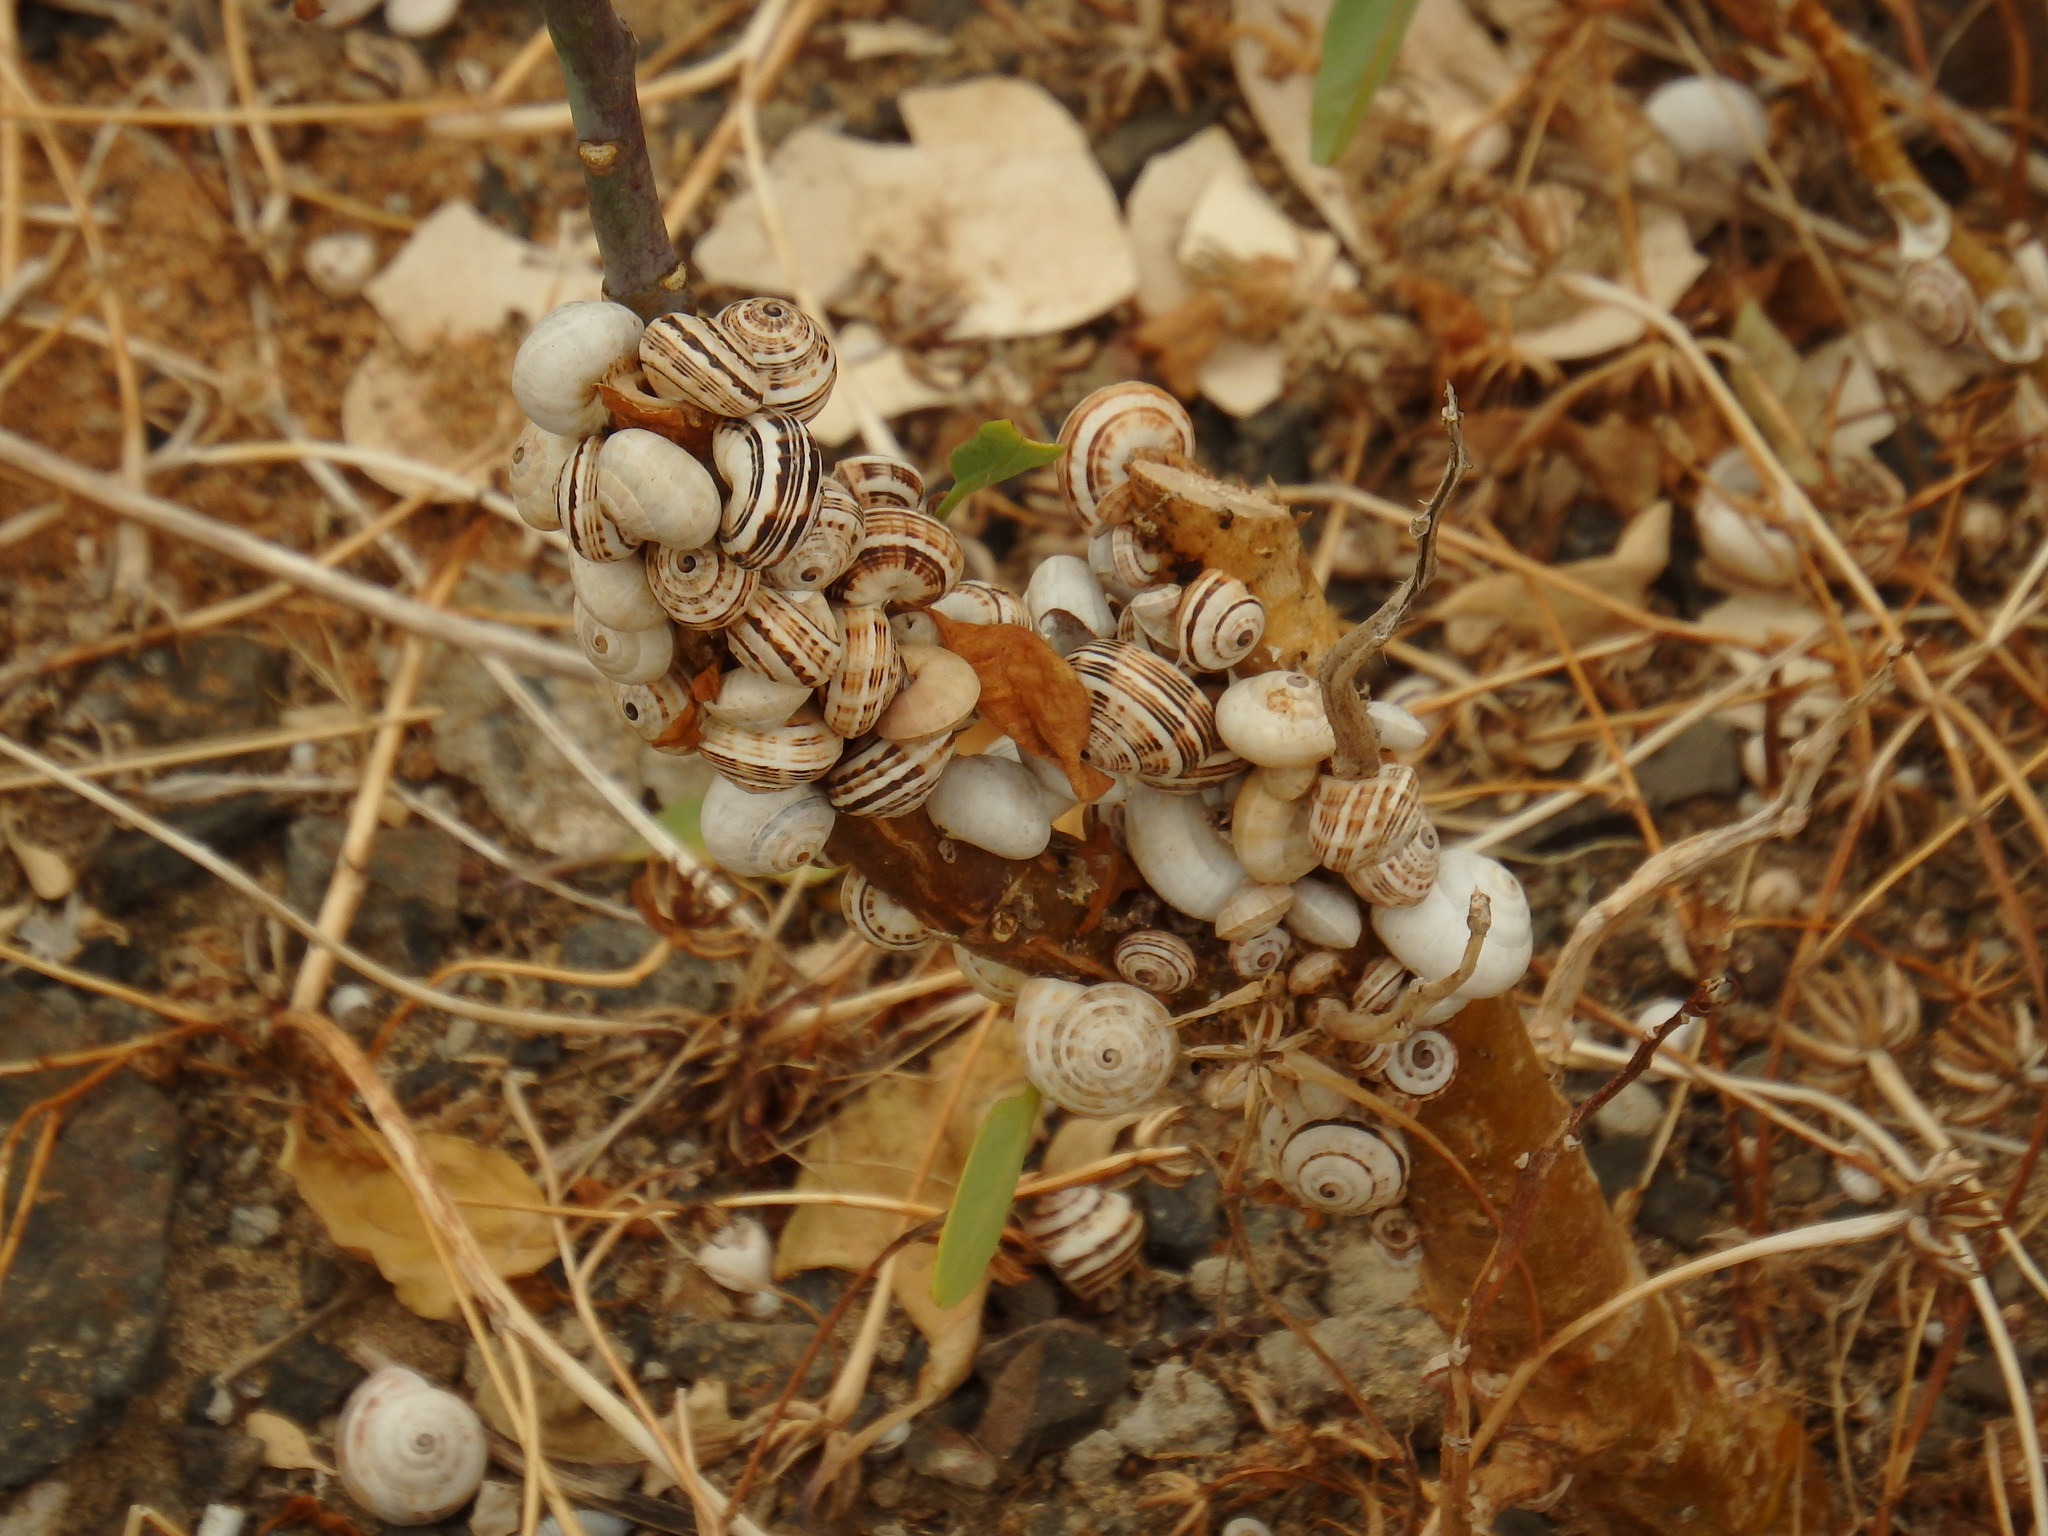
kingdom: Animalia
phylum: Mollusca
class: Gastropoda
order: Stylommatophora
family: Helicidae
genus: Theba
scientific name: Theba pisana
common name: White snail
